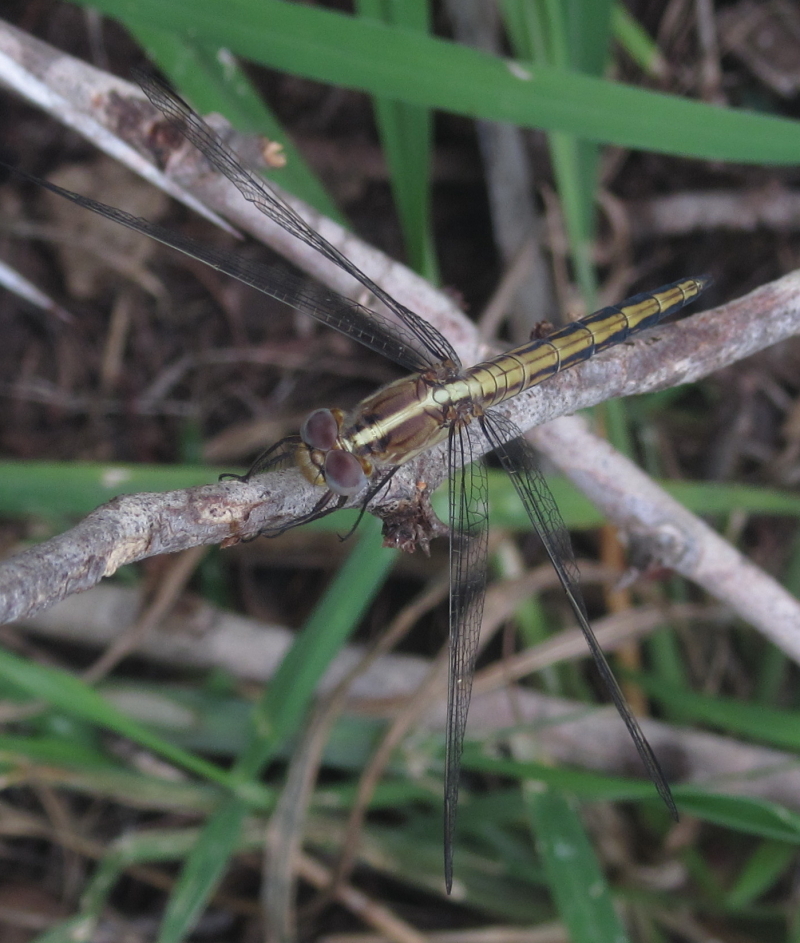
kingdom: Animalia
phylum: Arthropoda
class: Insecta
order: Odonata
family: Libellulidae
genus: Nesciothemis
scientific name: Nesciothemis farinosa
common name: Eastern blacktail
